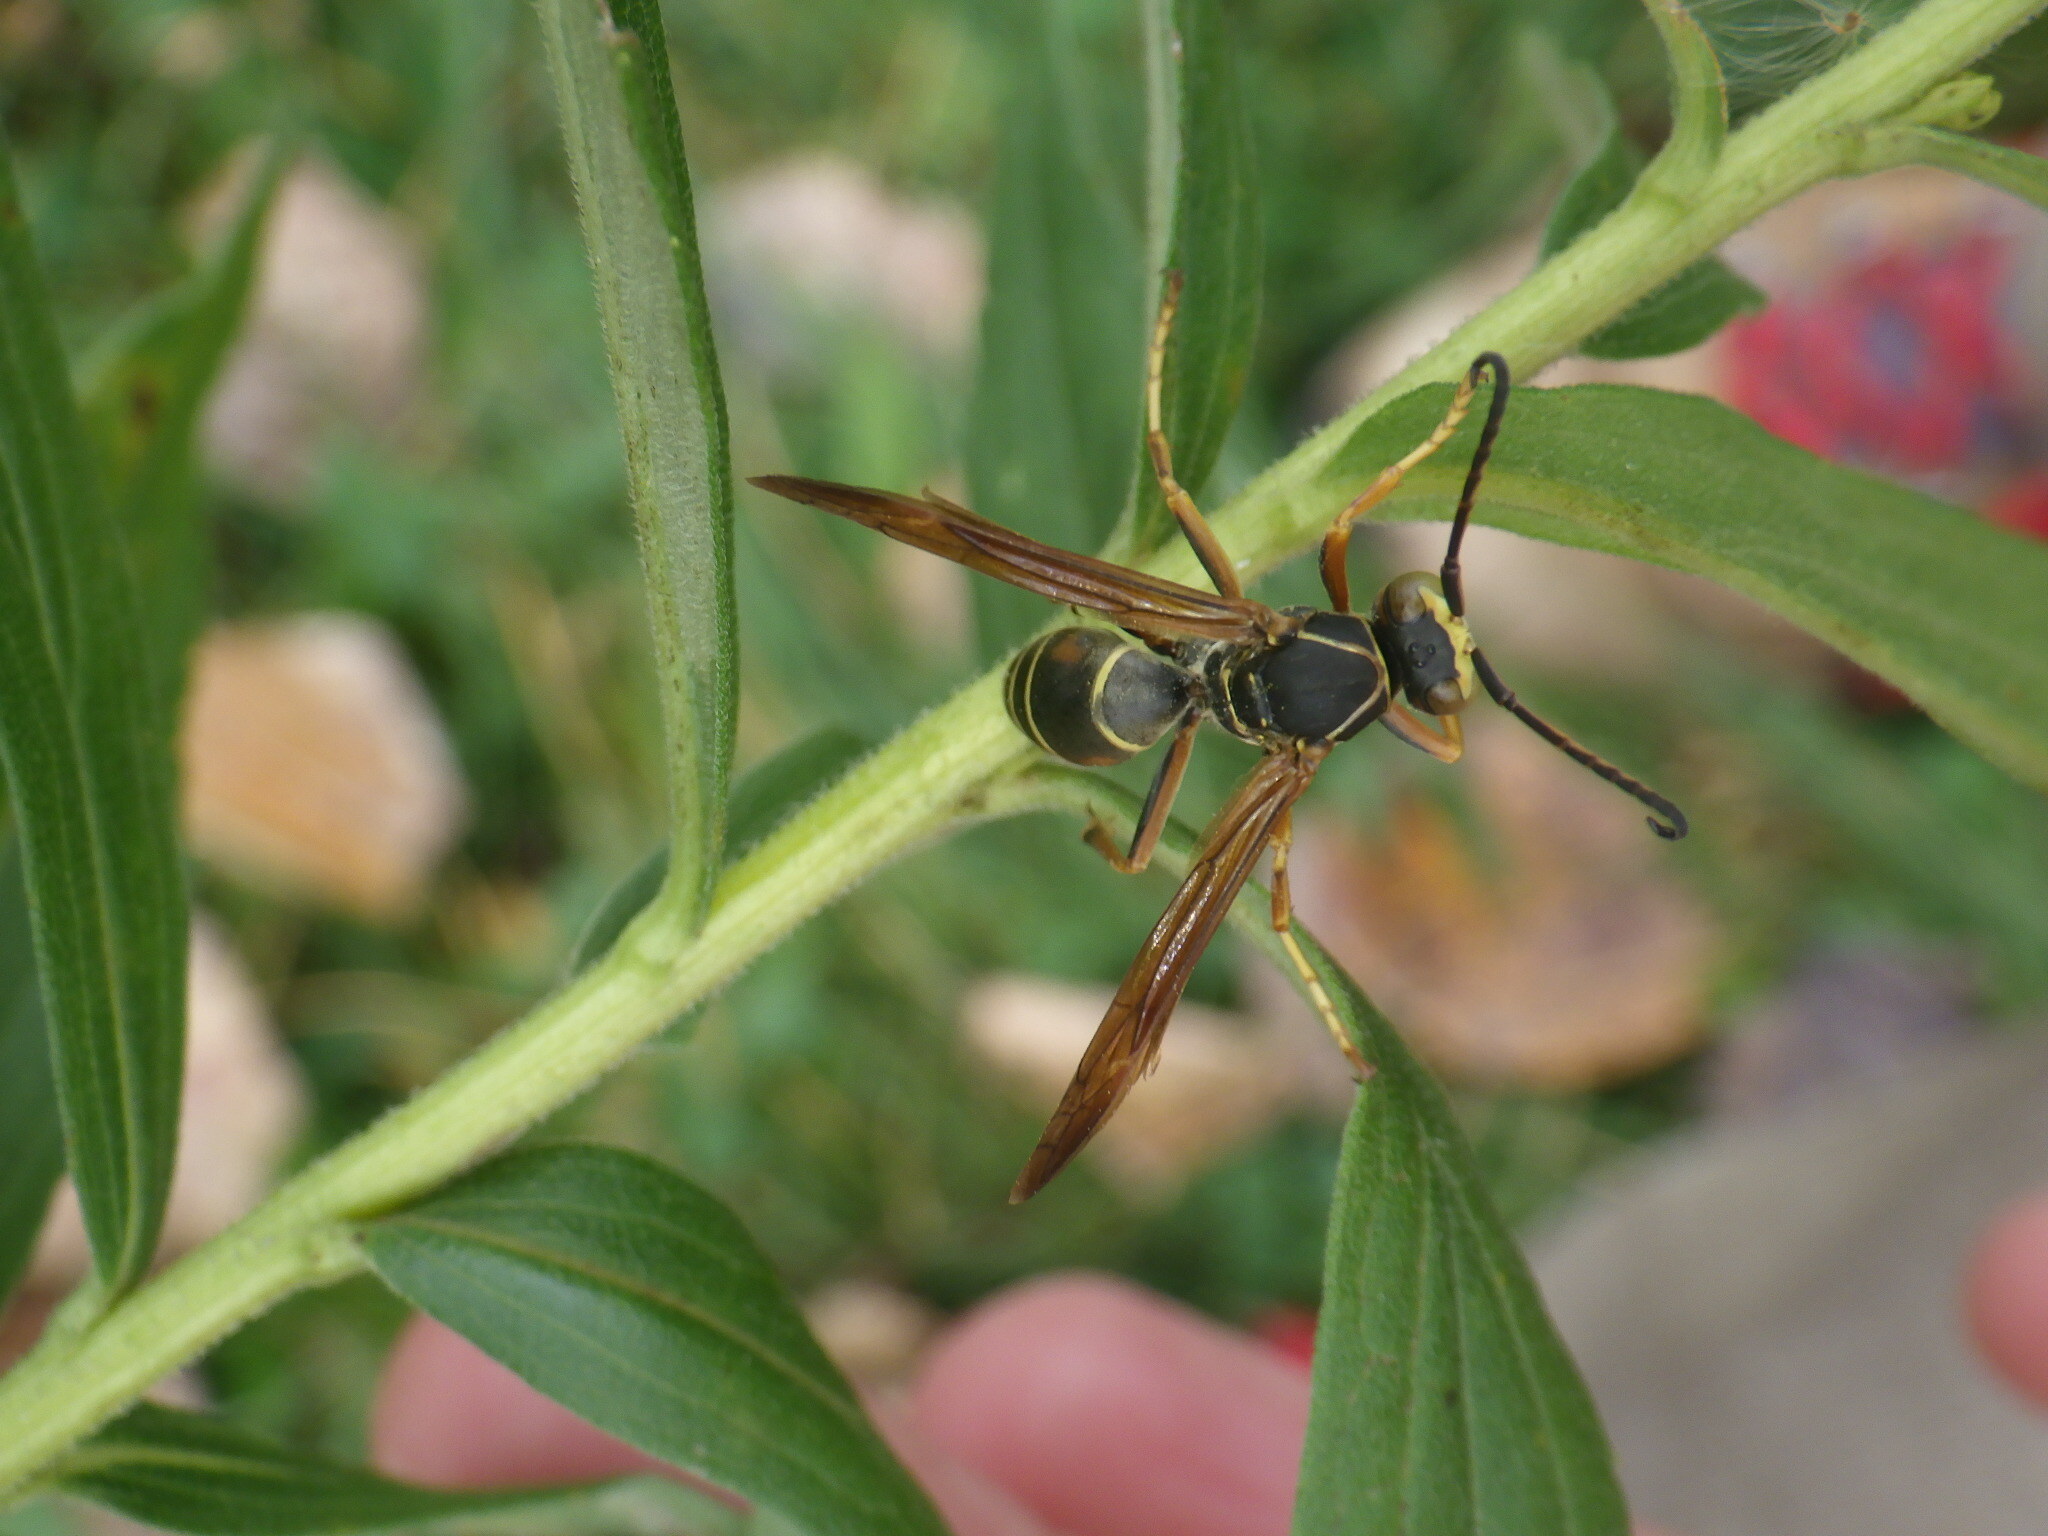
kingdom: Animalia
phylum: Arthropoda
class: Insecta
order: Hymenoptera
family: Eumenidae
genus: Polistes
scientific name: Polistes fuscatus
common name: Dark paper wasp
